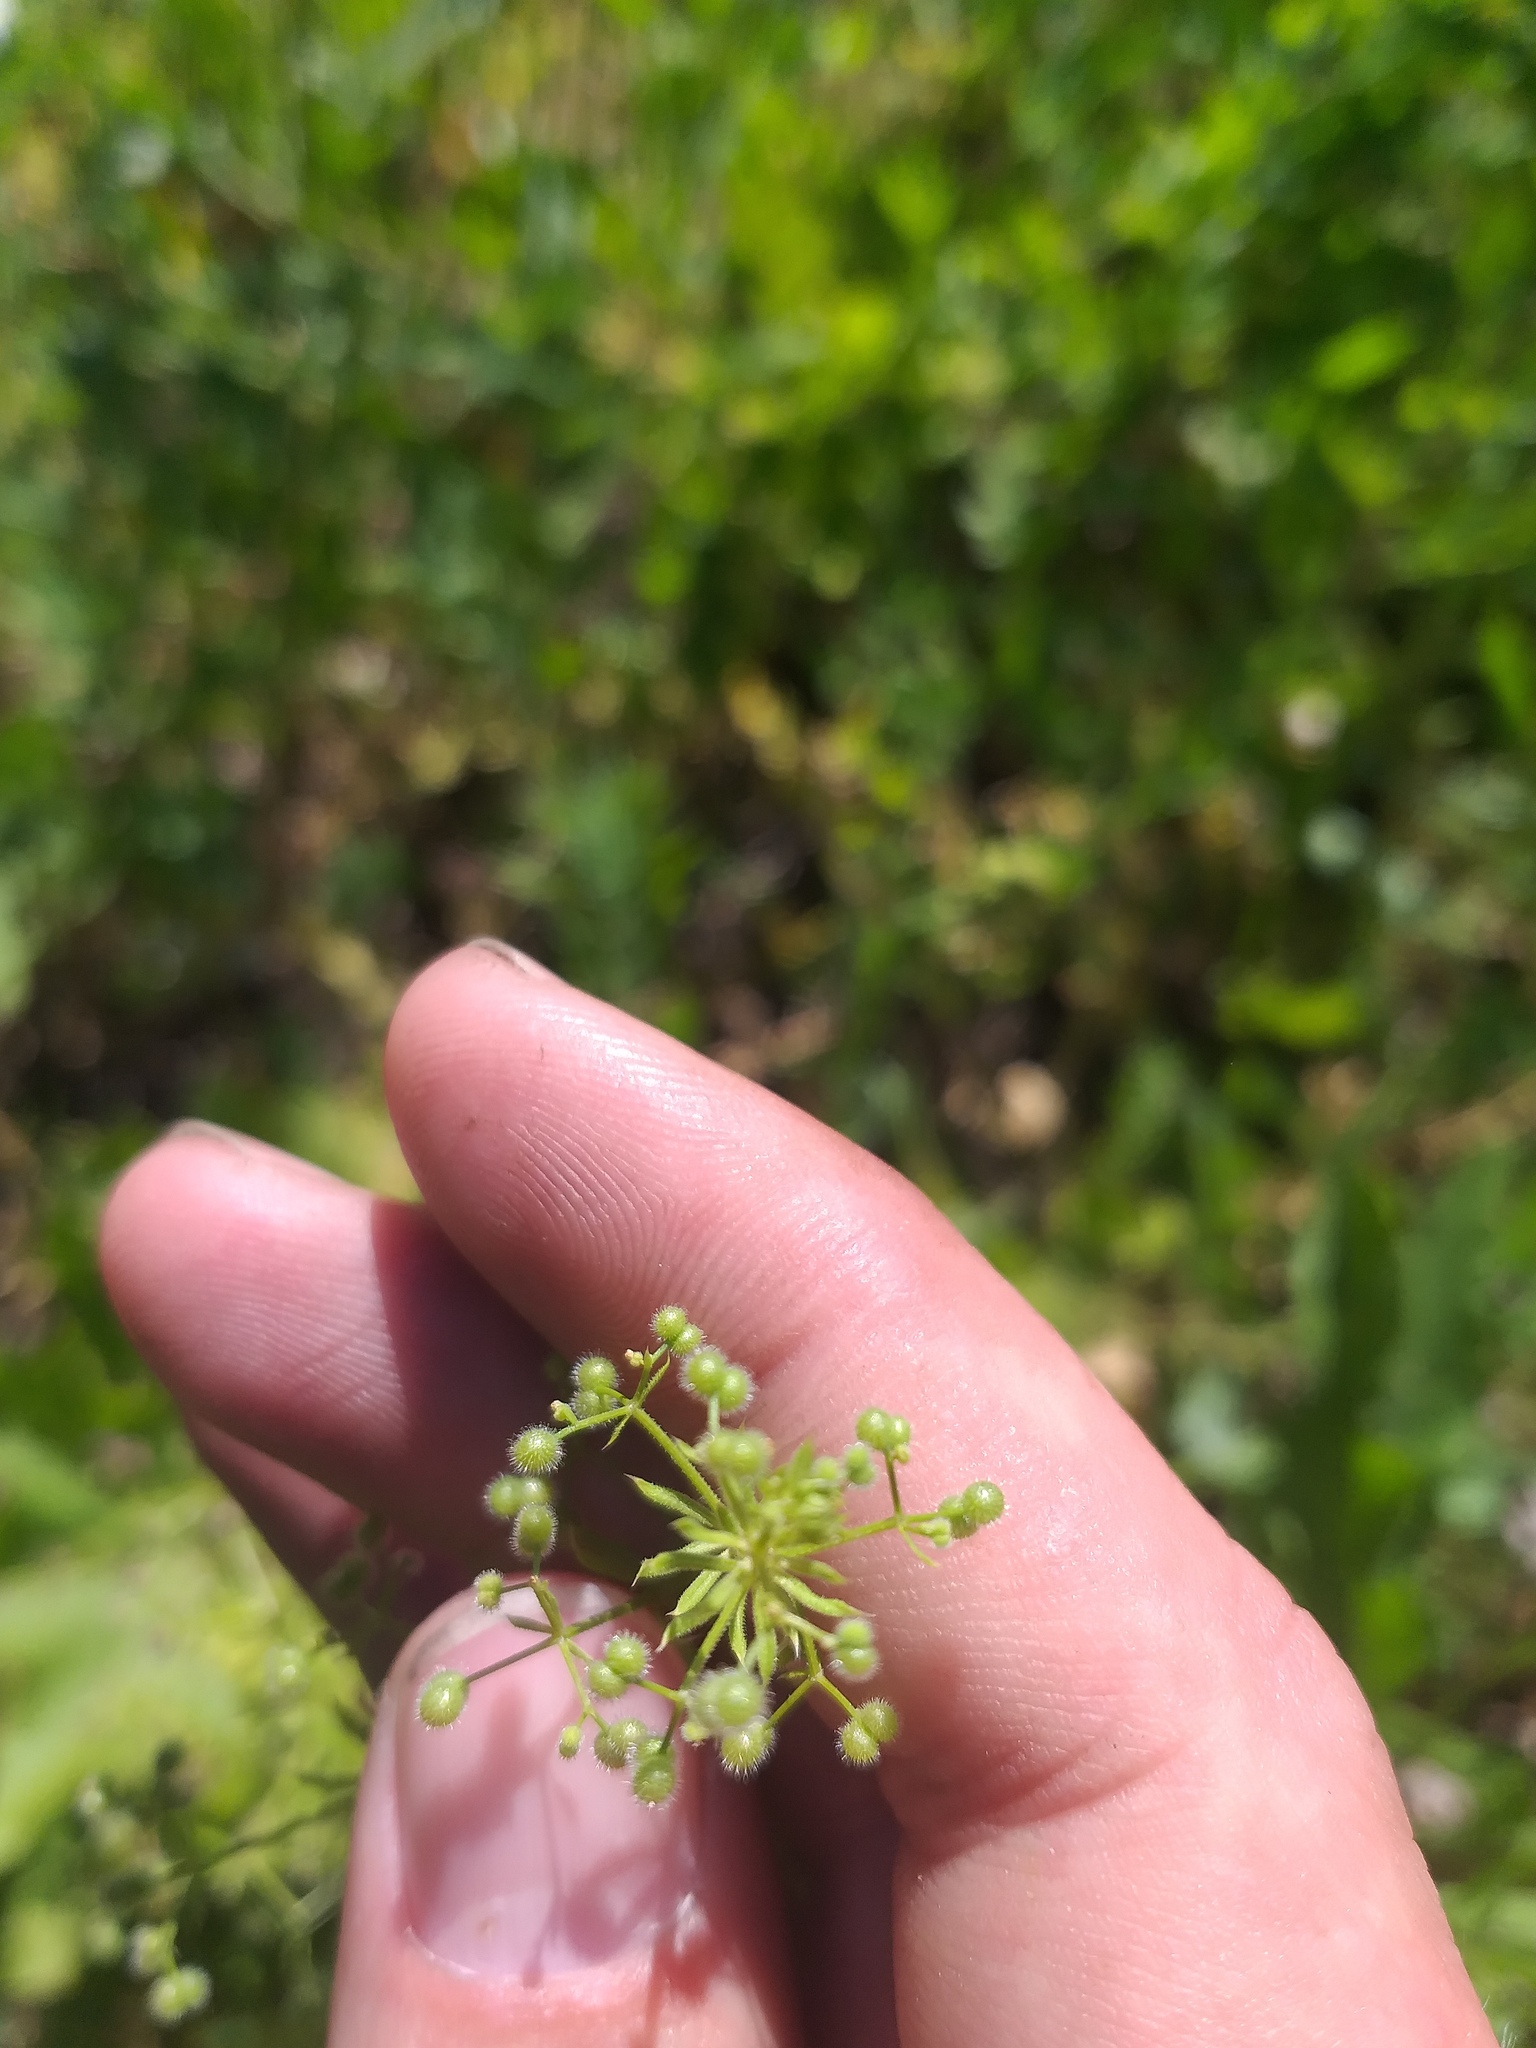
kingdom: Plantae
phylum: Tracheophyta
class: Magnoliopsida
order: Gentianales
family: Rubiaceae
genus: Galium
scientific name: Galium
